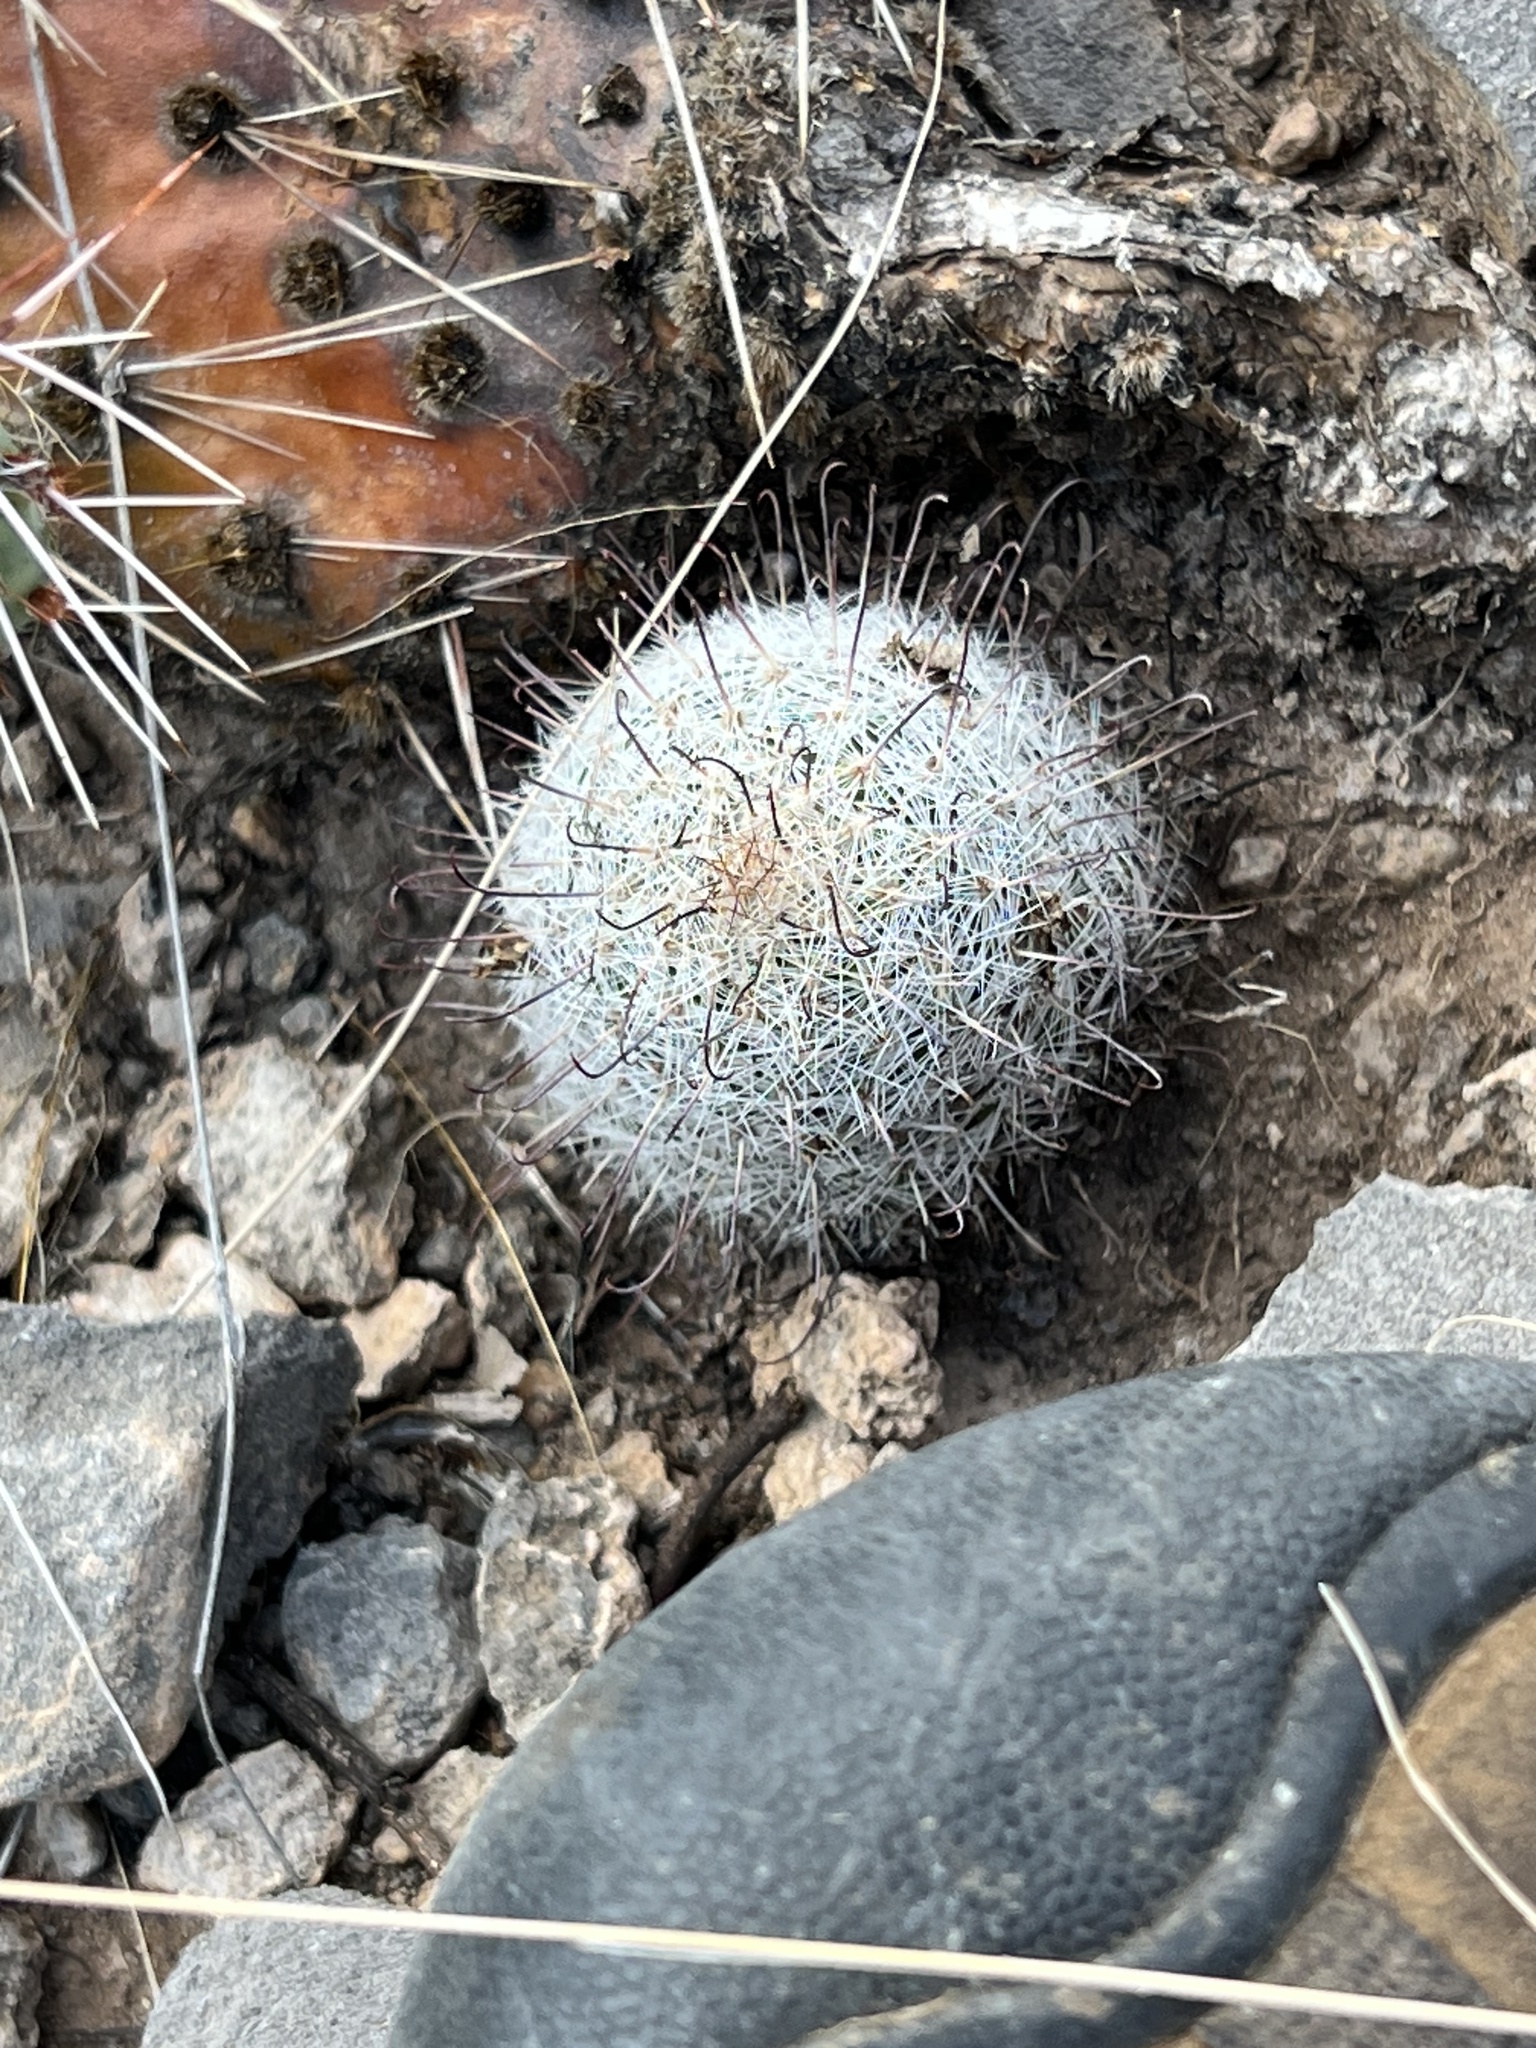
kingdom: Plantae
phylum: Tracheophyta
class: Magnoliopsida
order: Caryophyllales
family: Cactaceae
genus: Cochemiea
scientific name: Cochemiea grahamii
